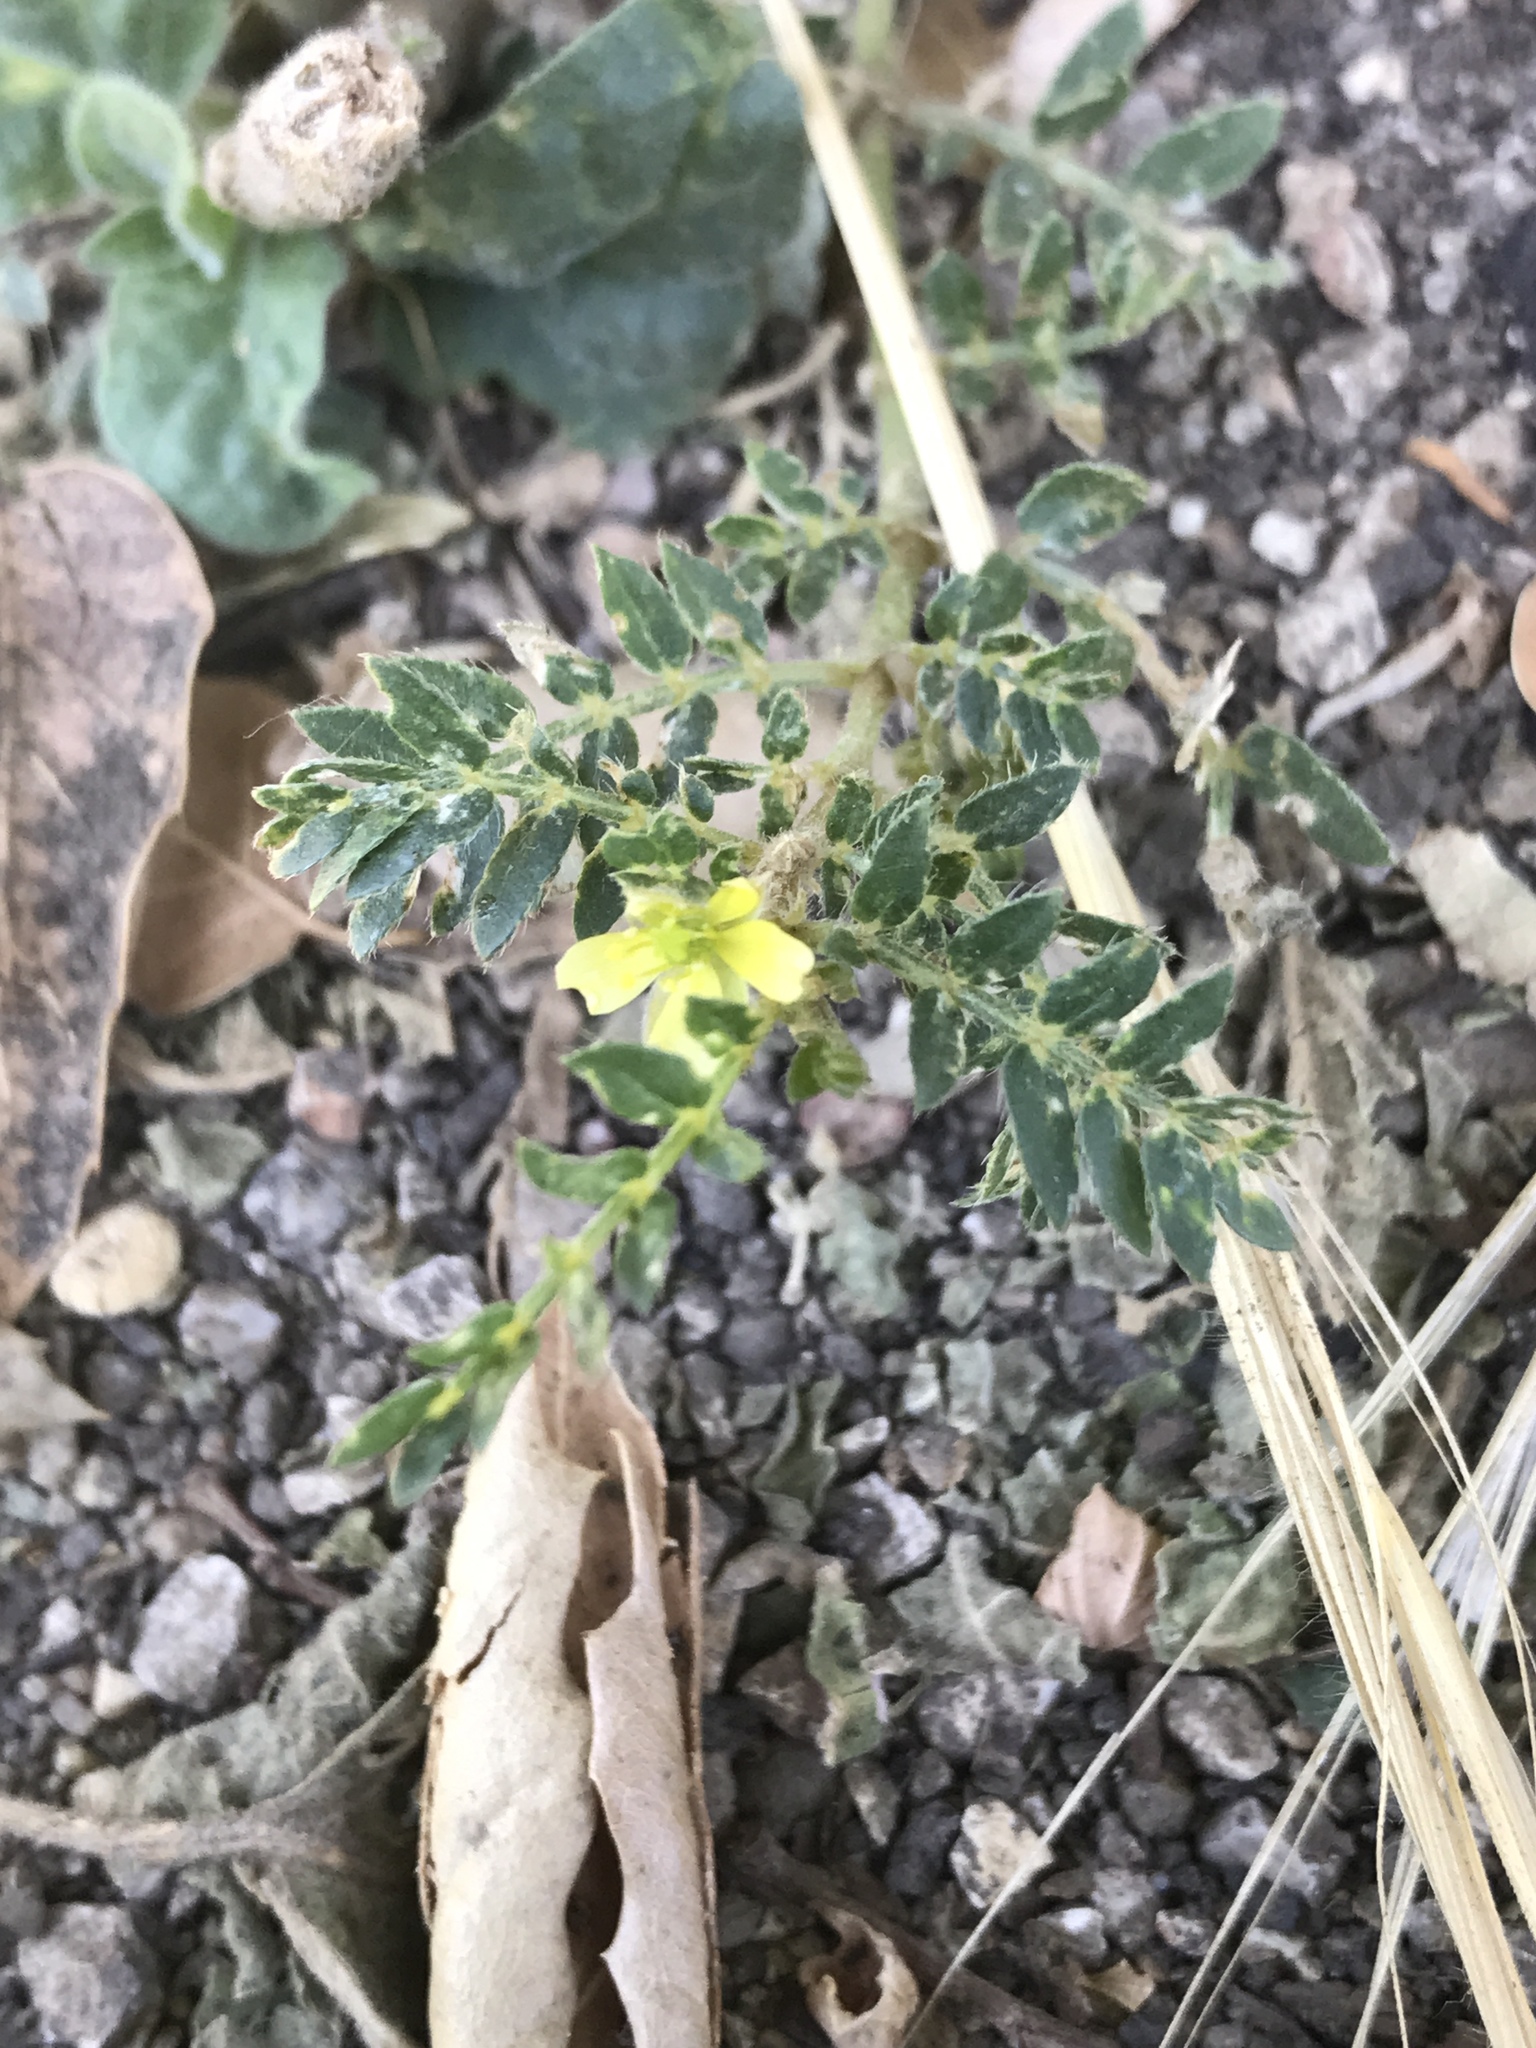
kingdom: Plantae
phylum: Tracheophyta
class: Magnoliopsida
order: Zygophyllales
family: Zygophyllaceae
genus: Tribulus
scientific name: Tribulus terrestris
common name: Puncturevine
